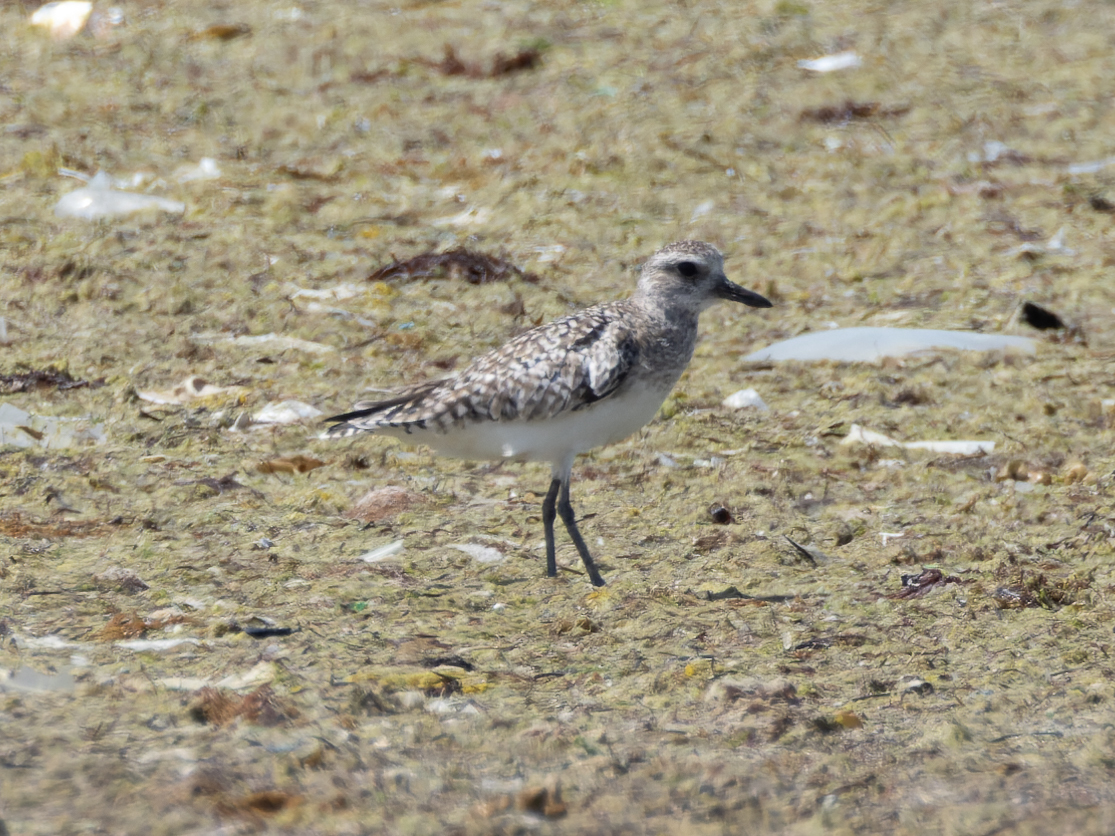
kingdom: Animalia
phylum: Chordata
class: Aves
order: Charadriiformes
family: Charadriidae
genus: Pluvialis
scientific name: Pluvialis squatarola
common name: Grey plover
